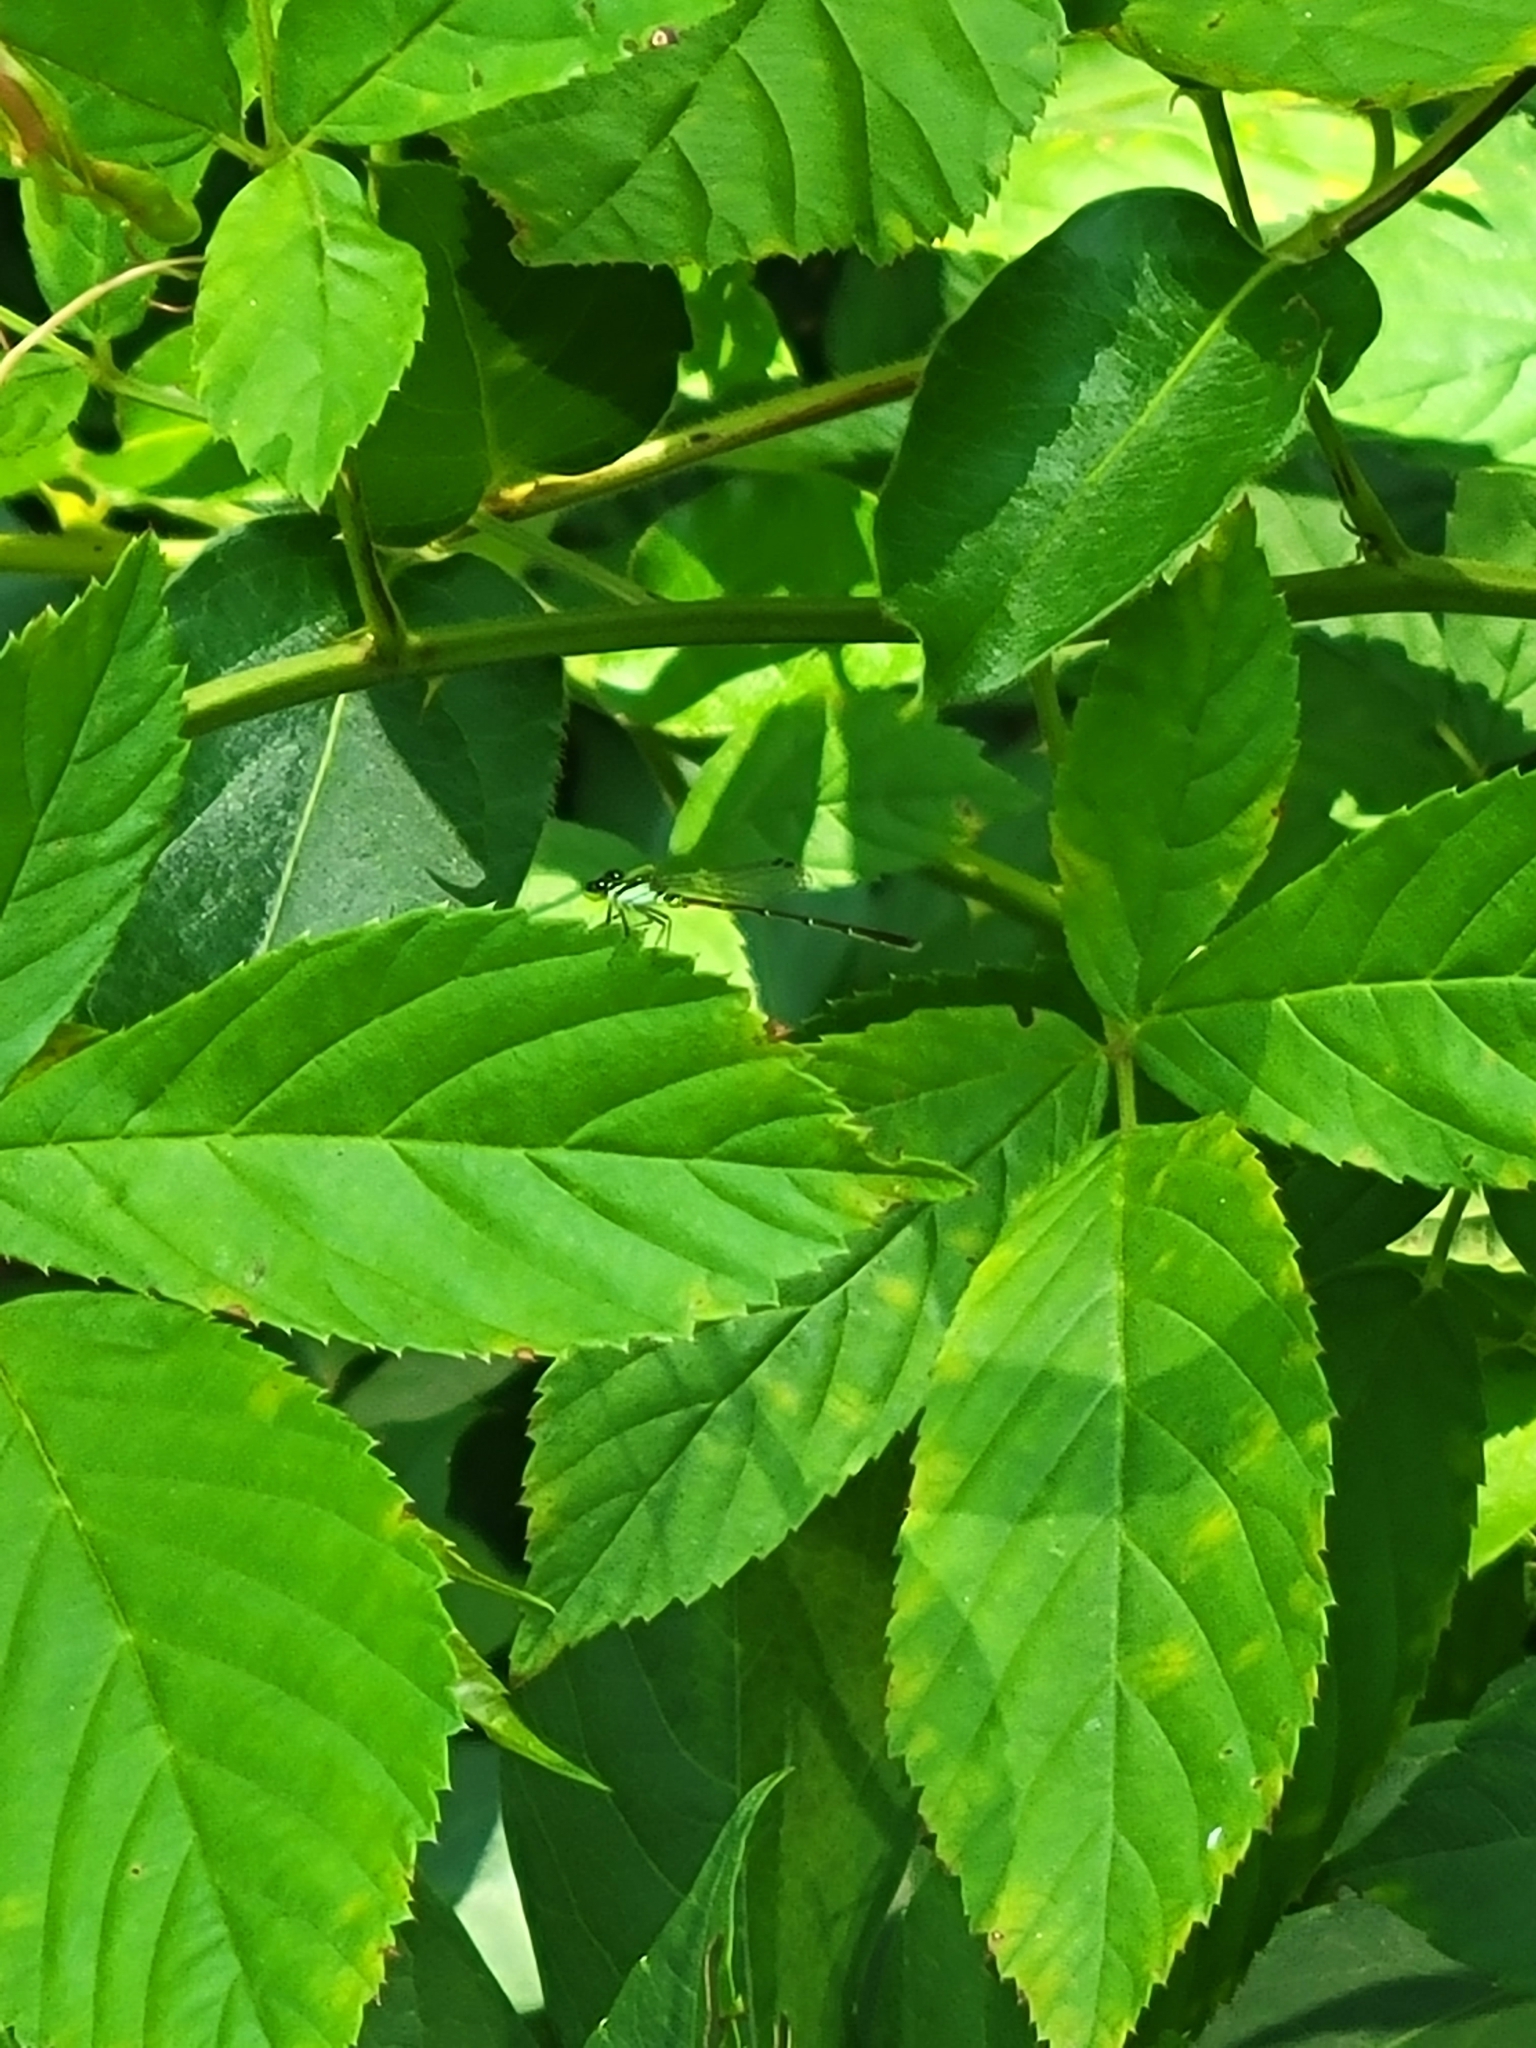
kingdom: Animalia
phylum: Arthropoda
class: Insecta
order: Odonata
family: Coenagrionidae
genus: Ischnura
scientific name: Ischnura posita
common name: Fragile forktail
